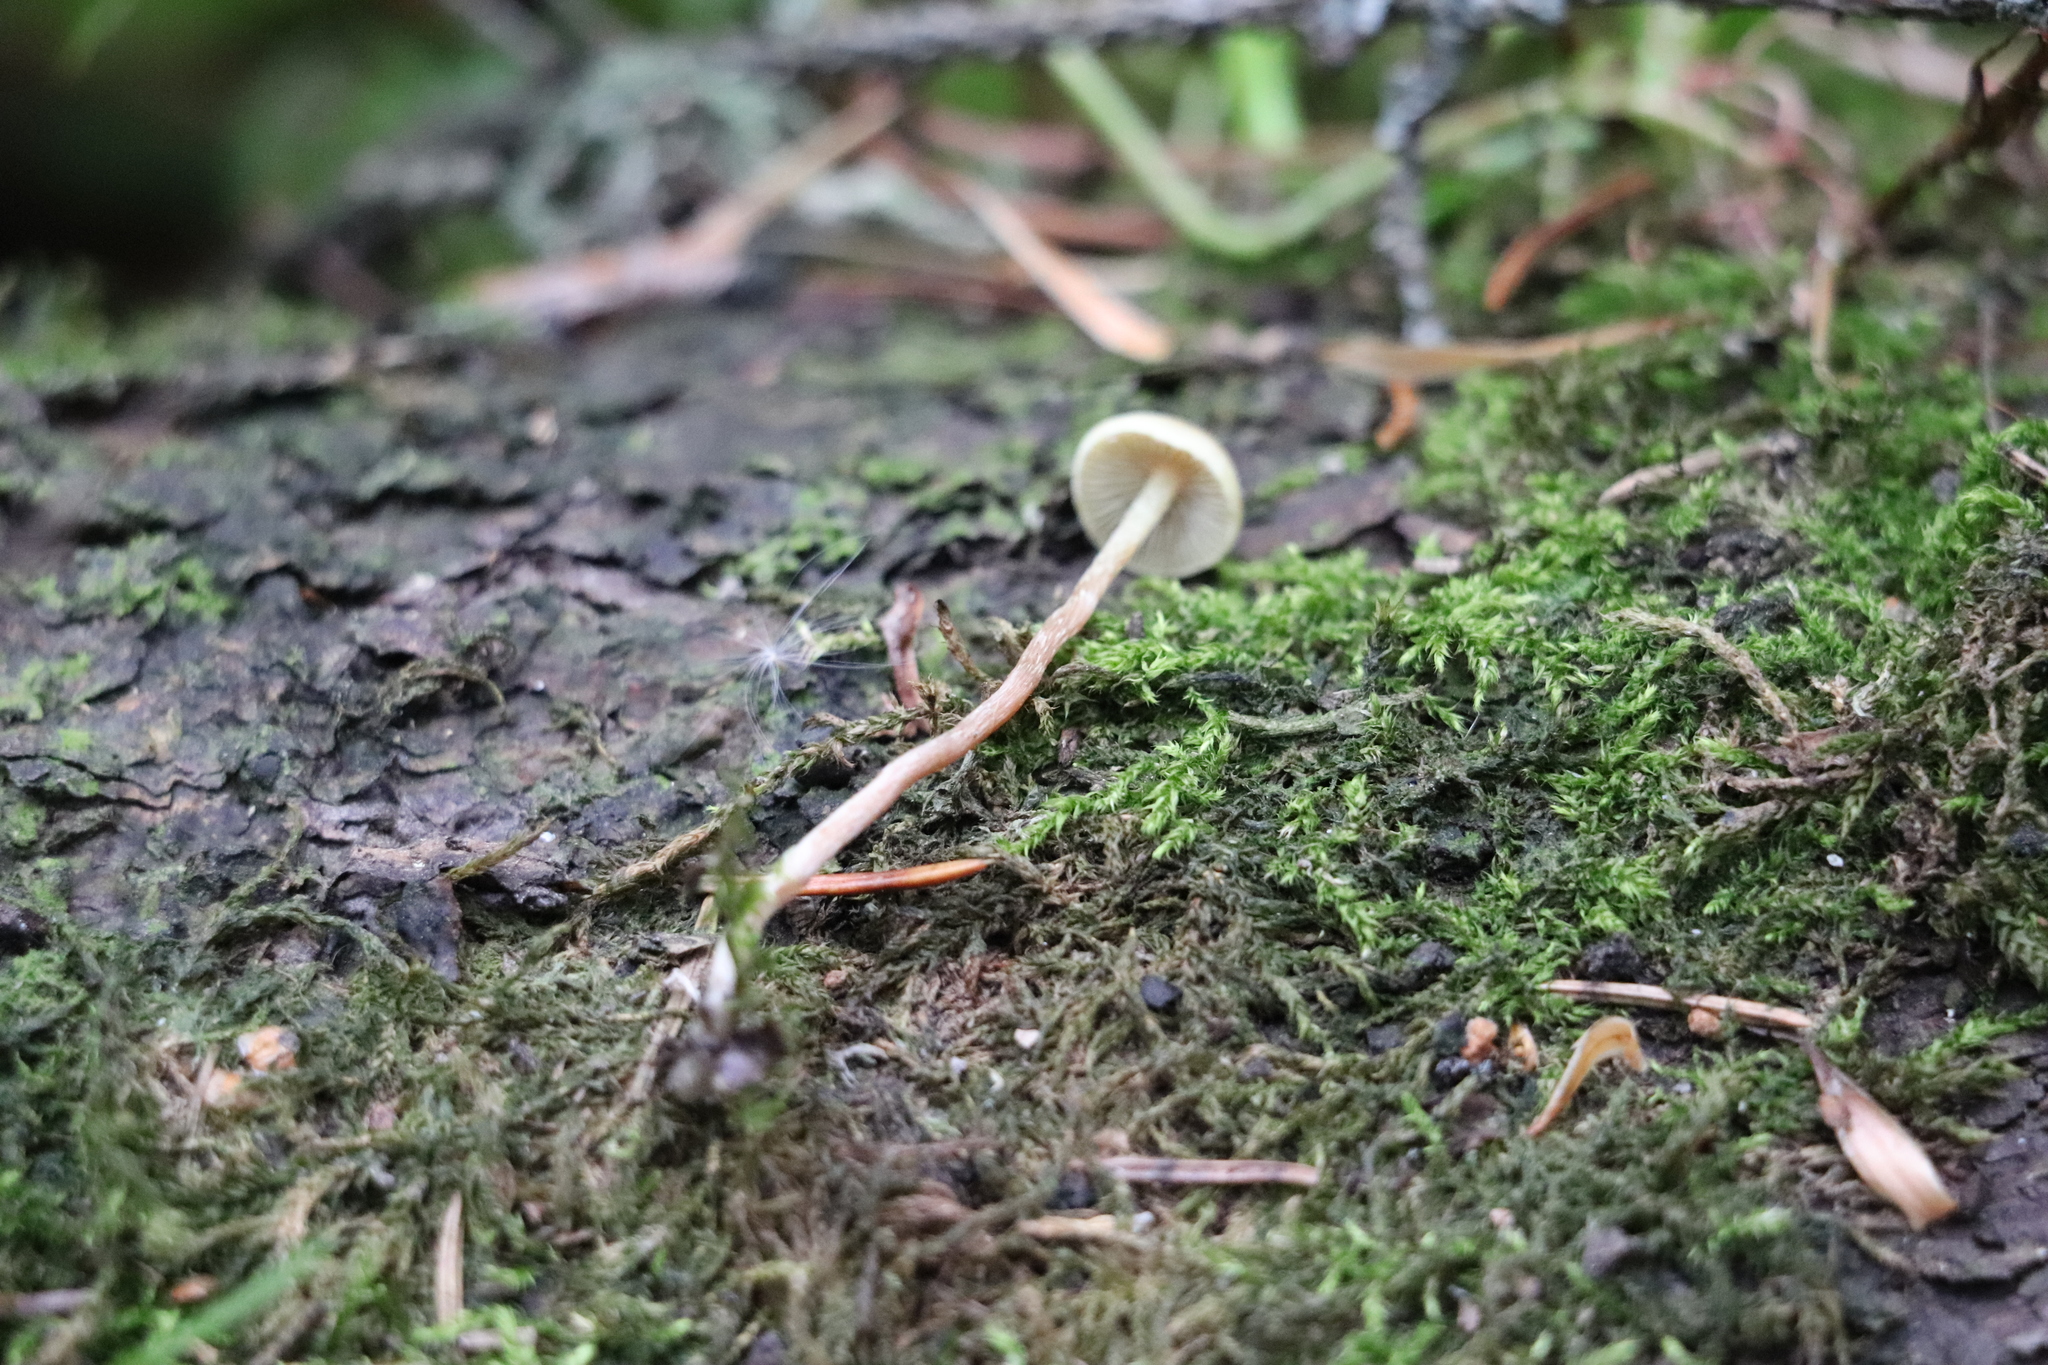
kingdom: Fungi
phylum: Basidiomycota
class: Agaricomycetes
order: Agaricales
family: Strophariaceae
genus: Bogbodia
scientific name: Bogbodia uda
